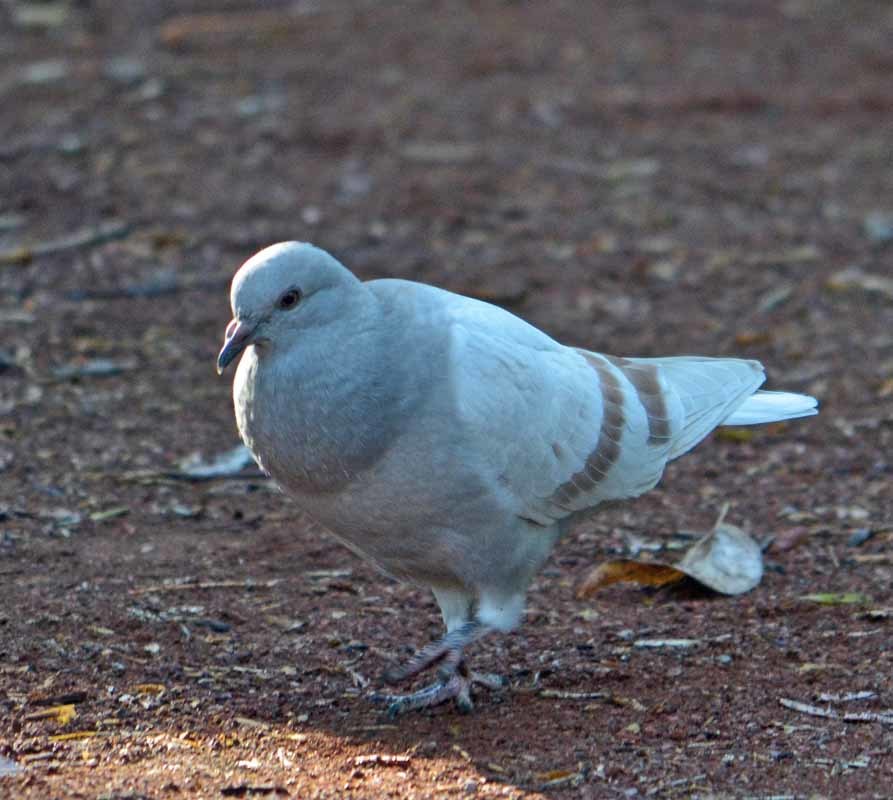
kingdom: Animalia
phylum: Chordata
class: Aves
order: Columbiformes
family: Columbidae
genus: Columba
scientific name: Columba livia
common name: Rock pigeon
